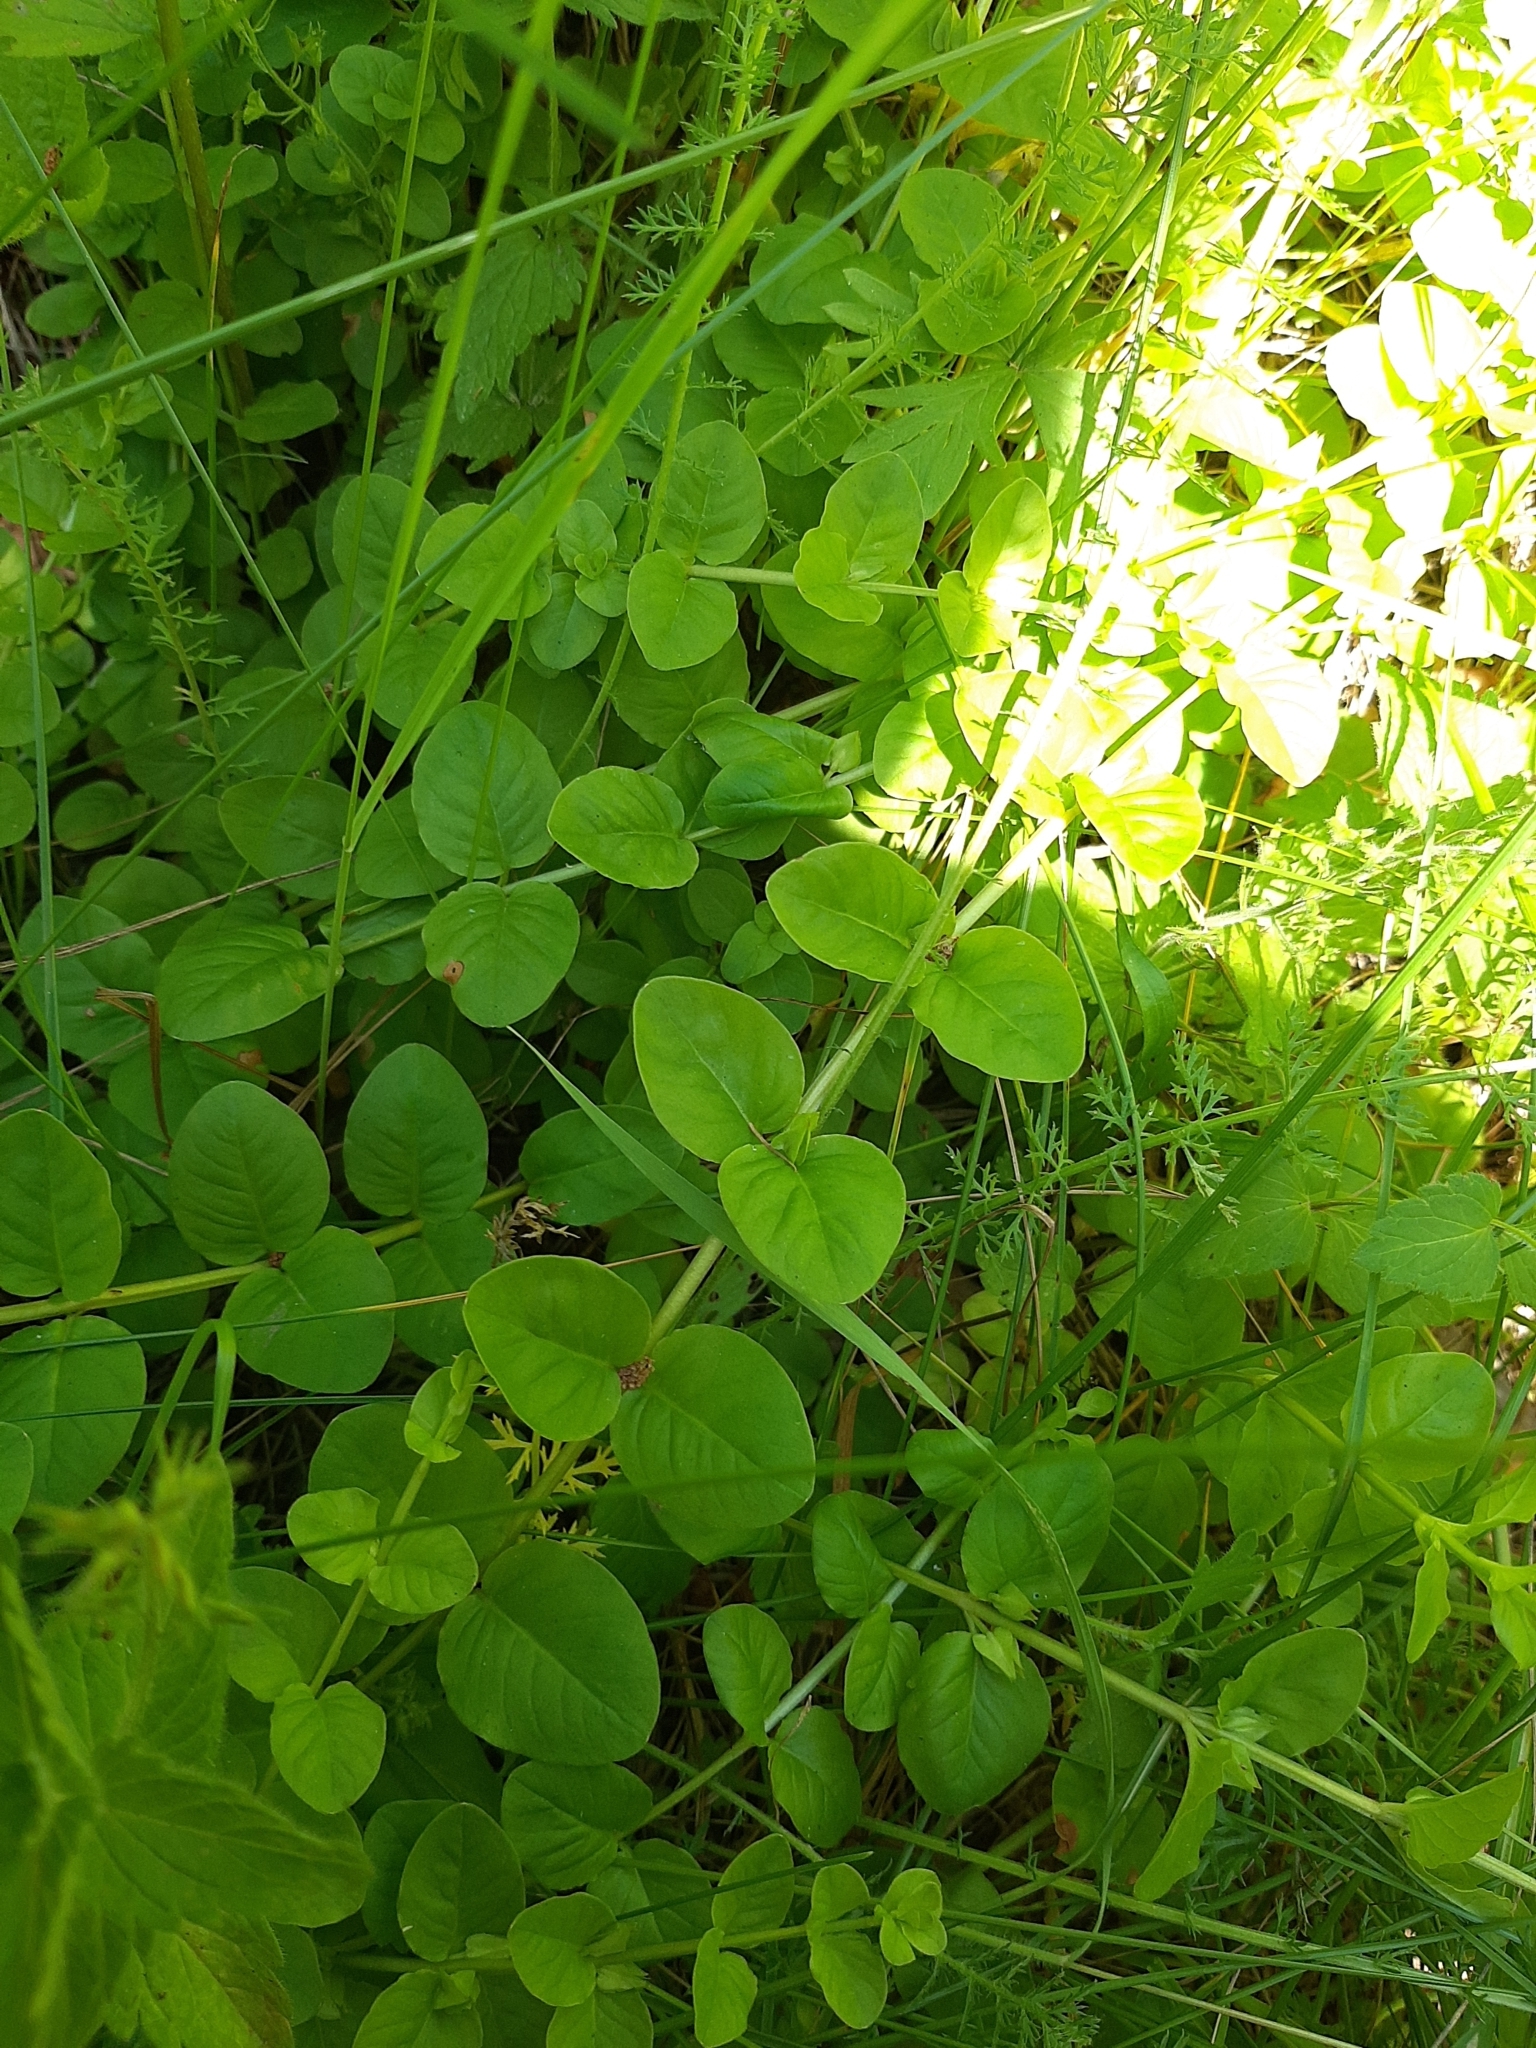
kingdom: Plantae
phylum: Tracheophyta
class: Magnoliopsida
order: Ericales
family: Primulaceae
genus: Lysimachia
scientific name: Lysimachia nummularia
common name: Moneywort
